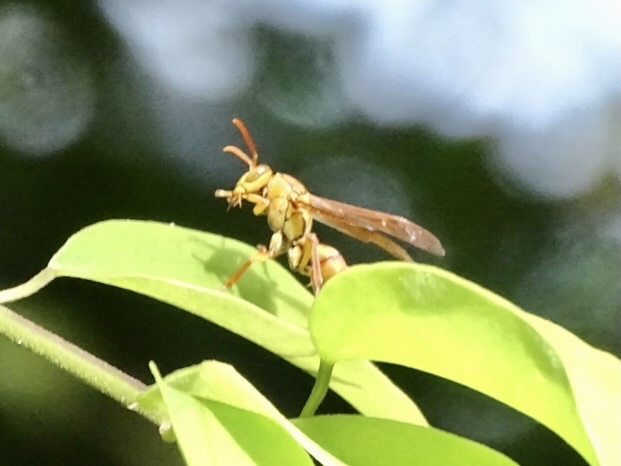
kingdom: Animalia
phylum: Arthropoda
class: Insecta
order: Hymenoptera
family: Eumenidae
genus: Polistes
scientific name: Polistes japonicus
